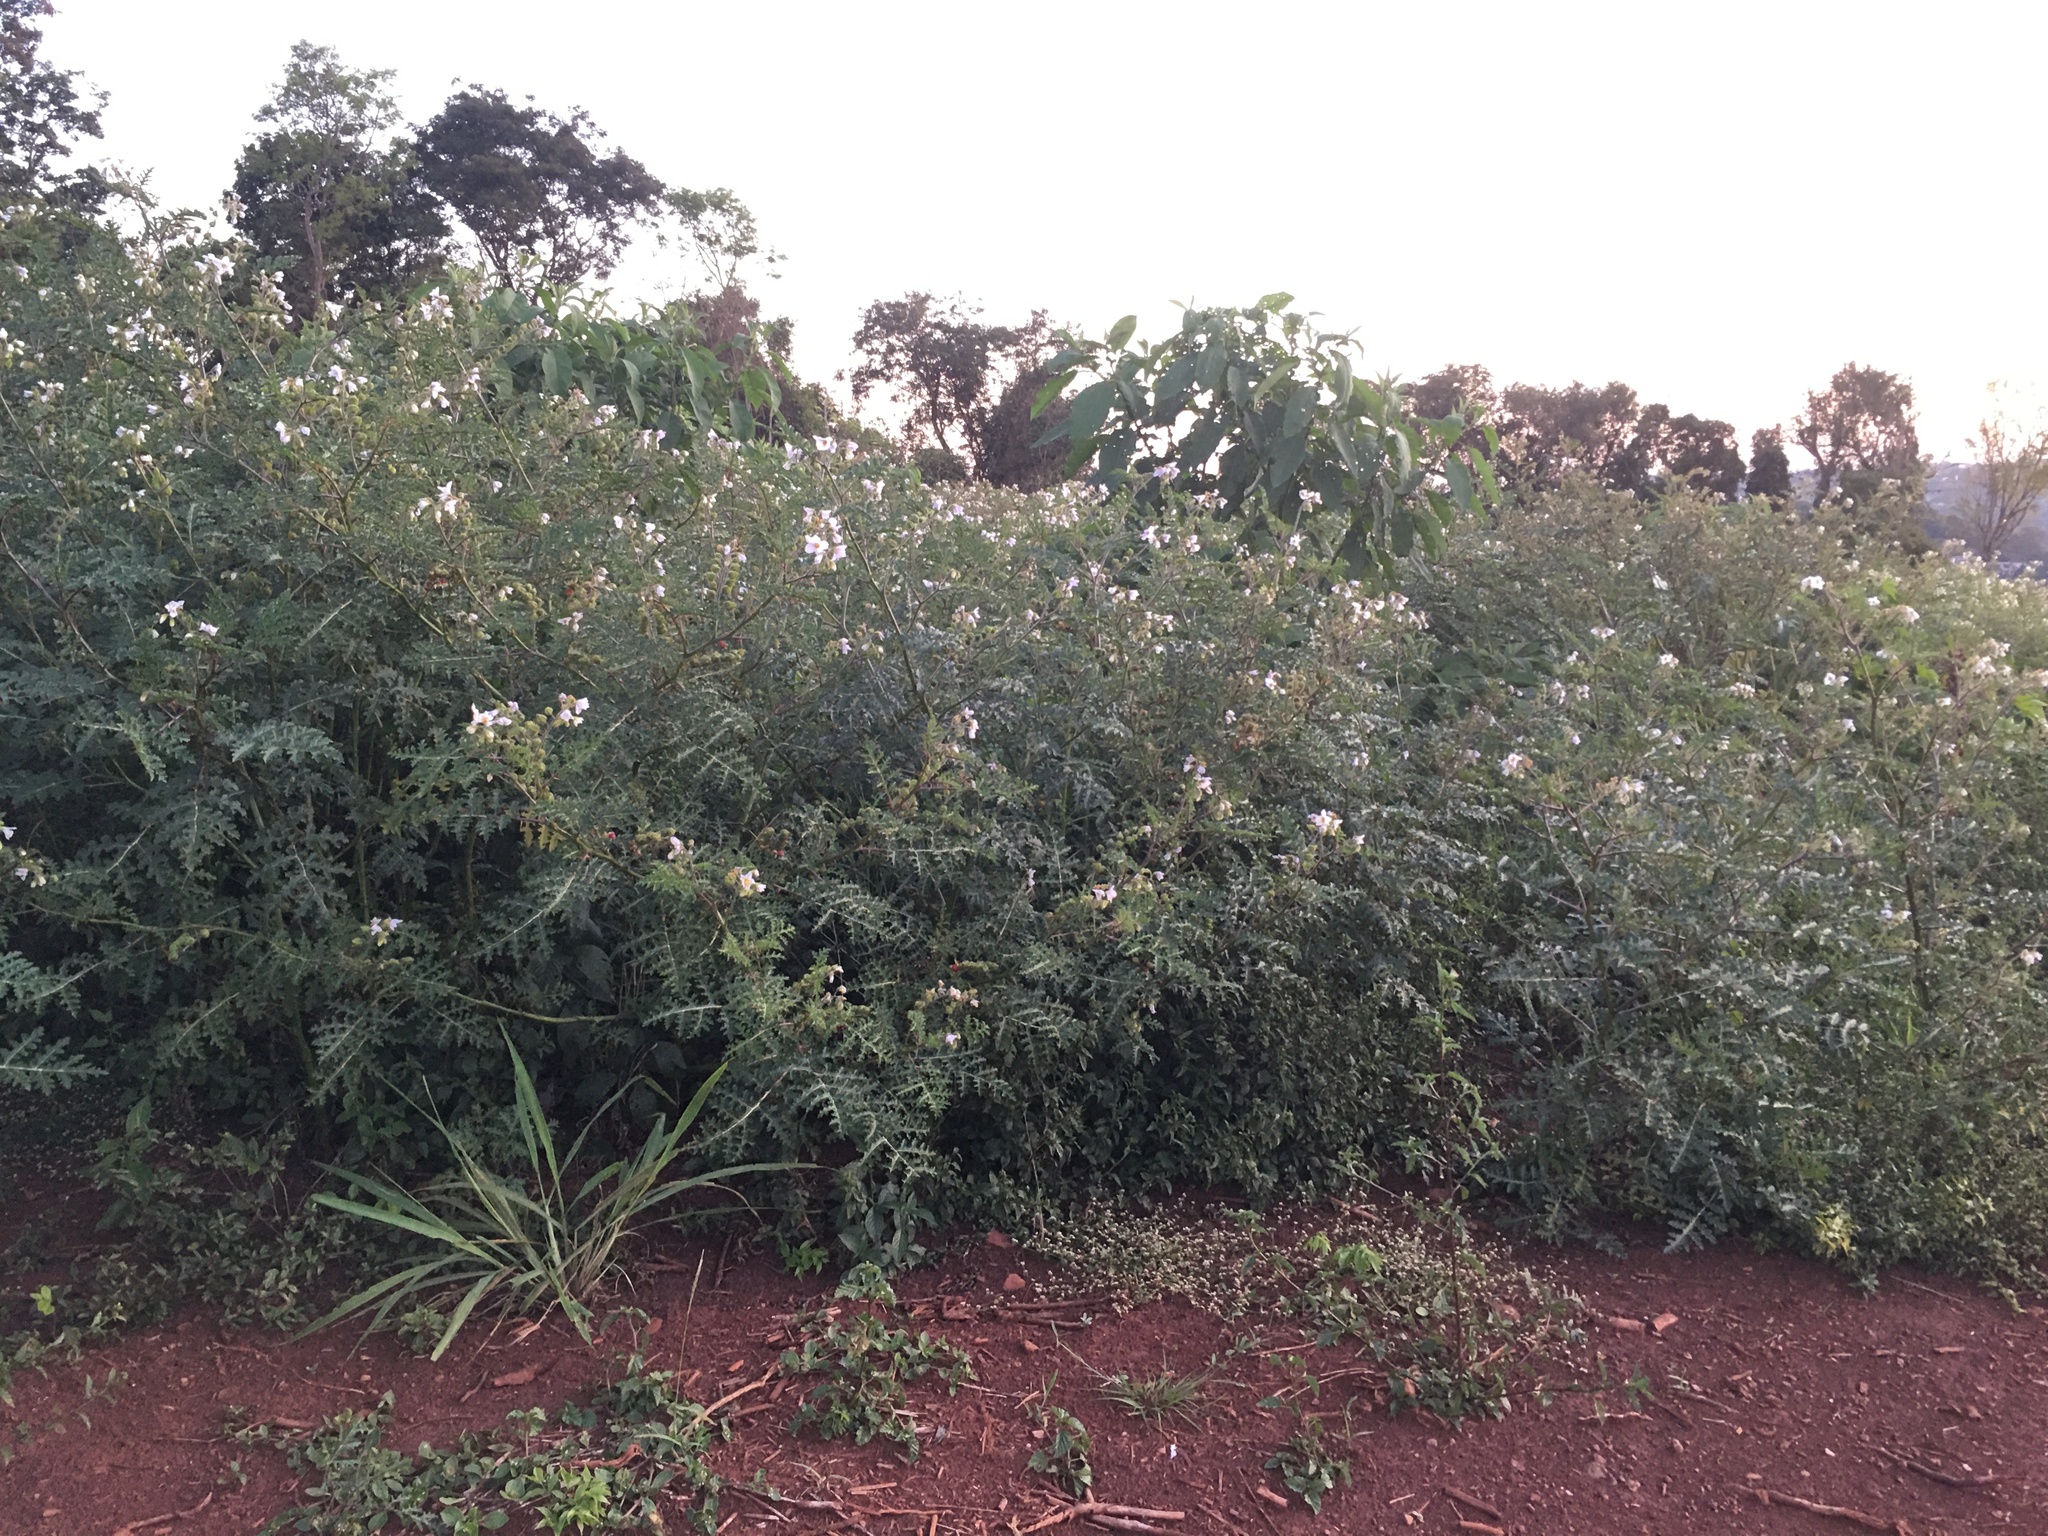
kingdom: Plantae
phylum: Tracheophyta
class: Magnoliopsida
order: Solanales
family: Solanaceae
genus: Solanum
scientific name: Solanum sisymbriifolium
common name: Red buffalo-bur
